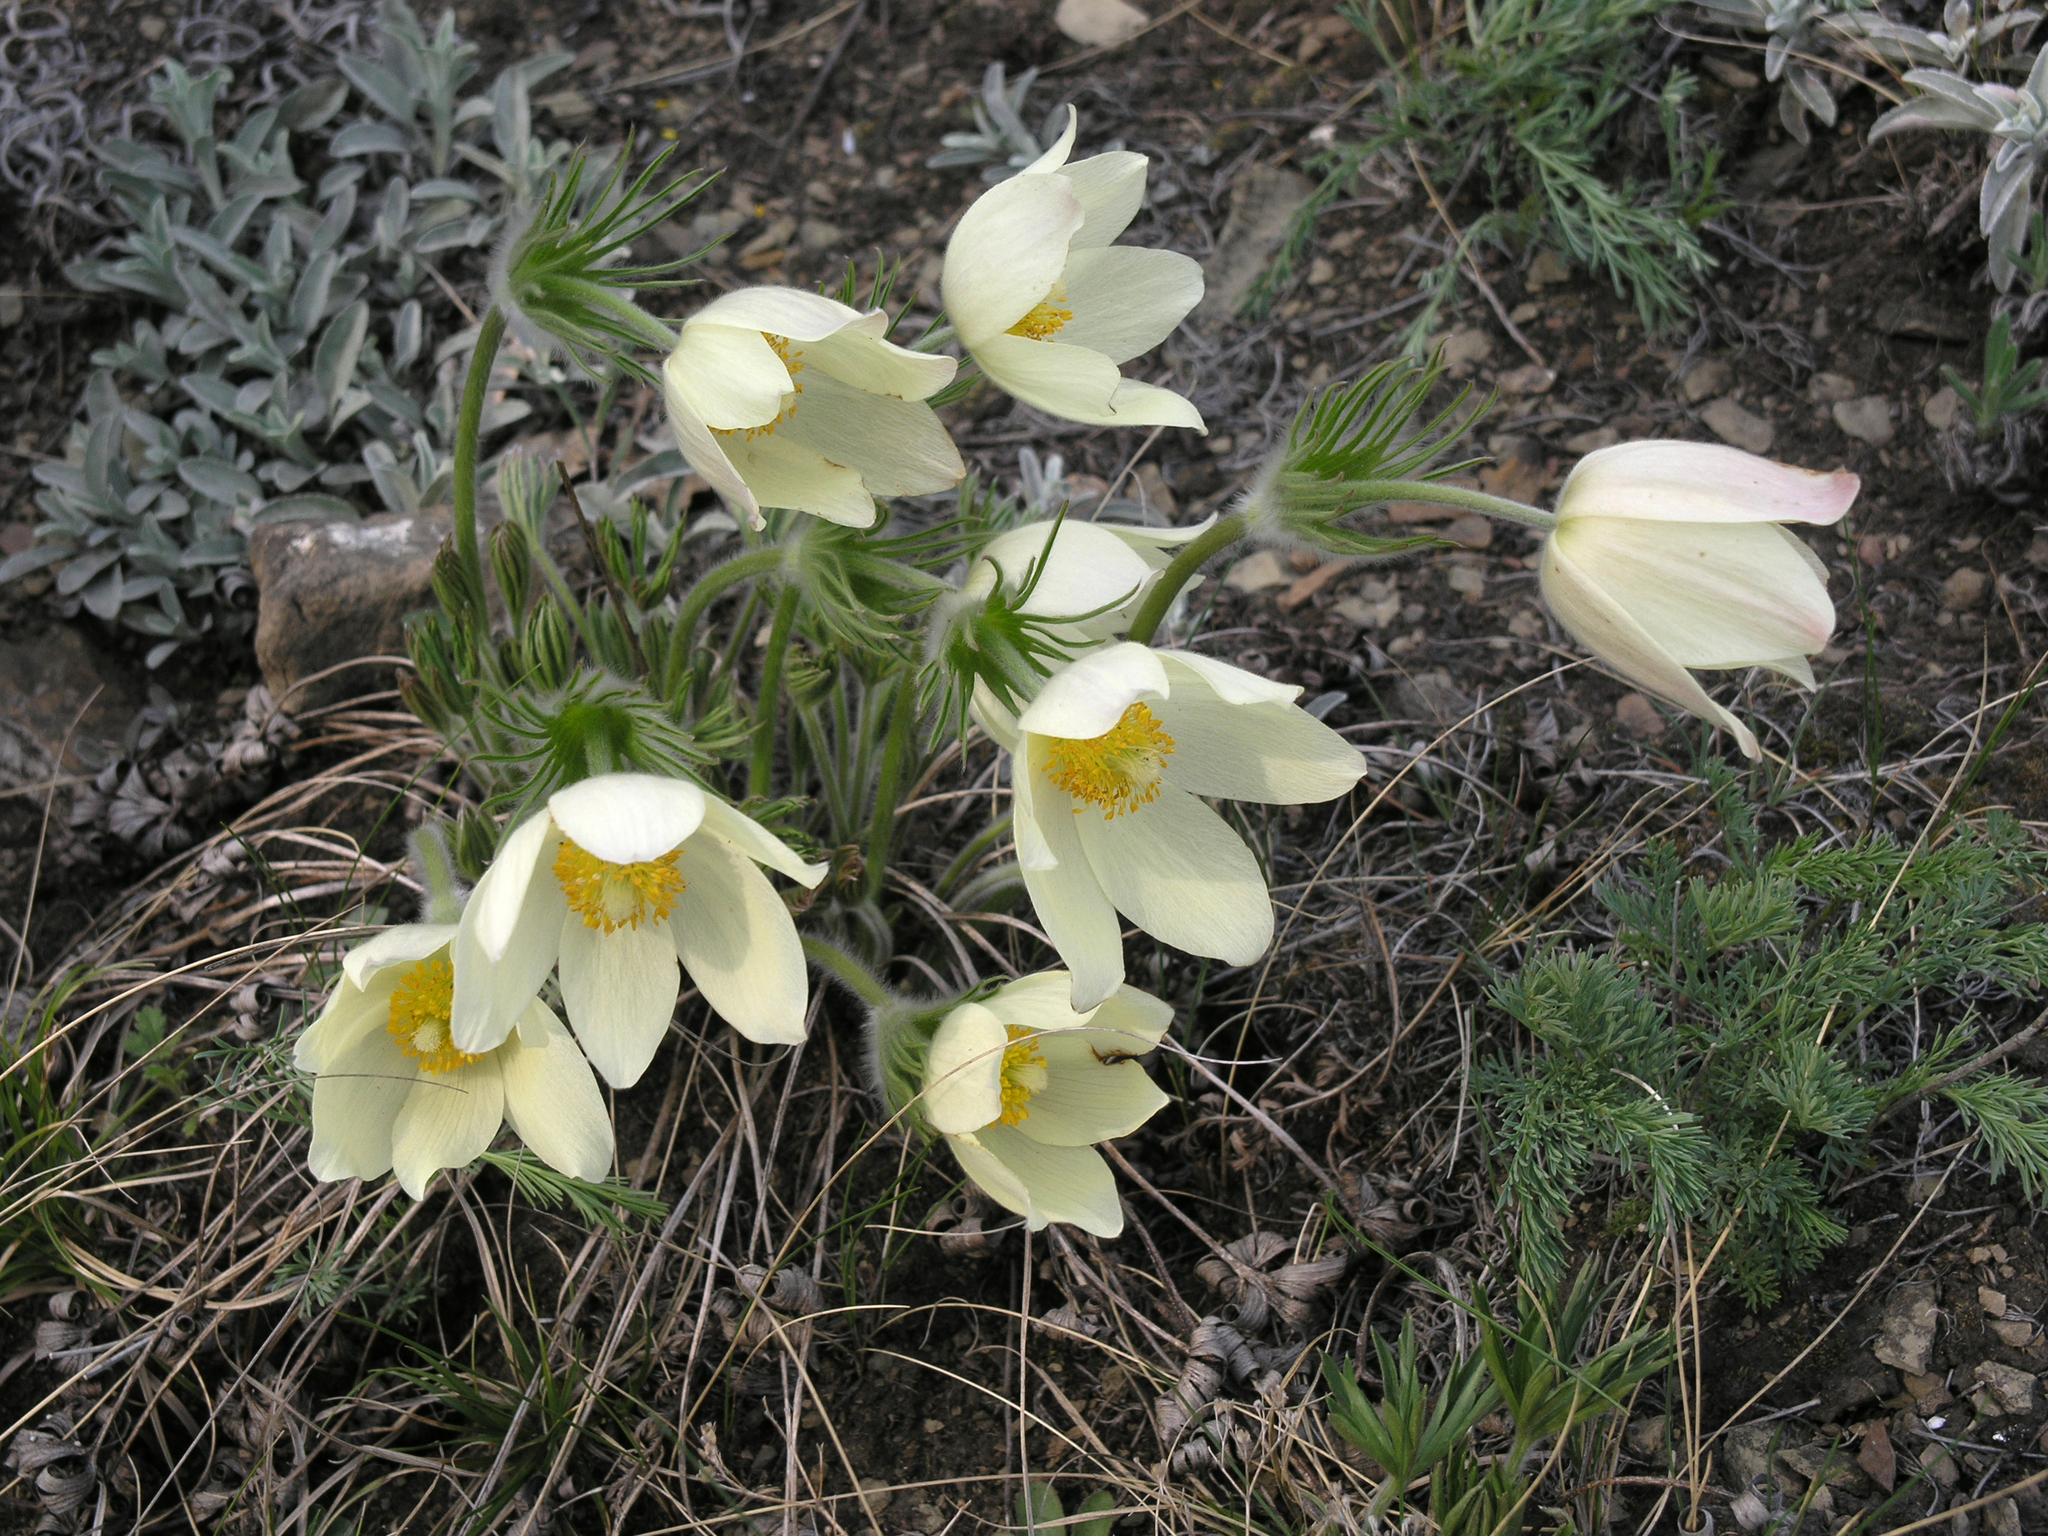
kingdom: Plantae
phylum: Tracheophyta
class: Magnoliopsida
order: Ranunculales
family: Ranunculaceae
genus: Pulsatilla
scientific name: Pulsatilla patens
